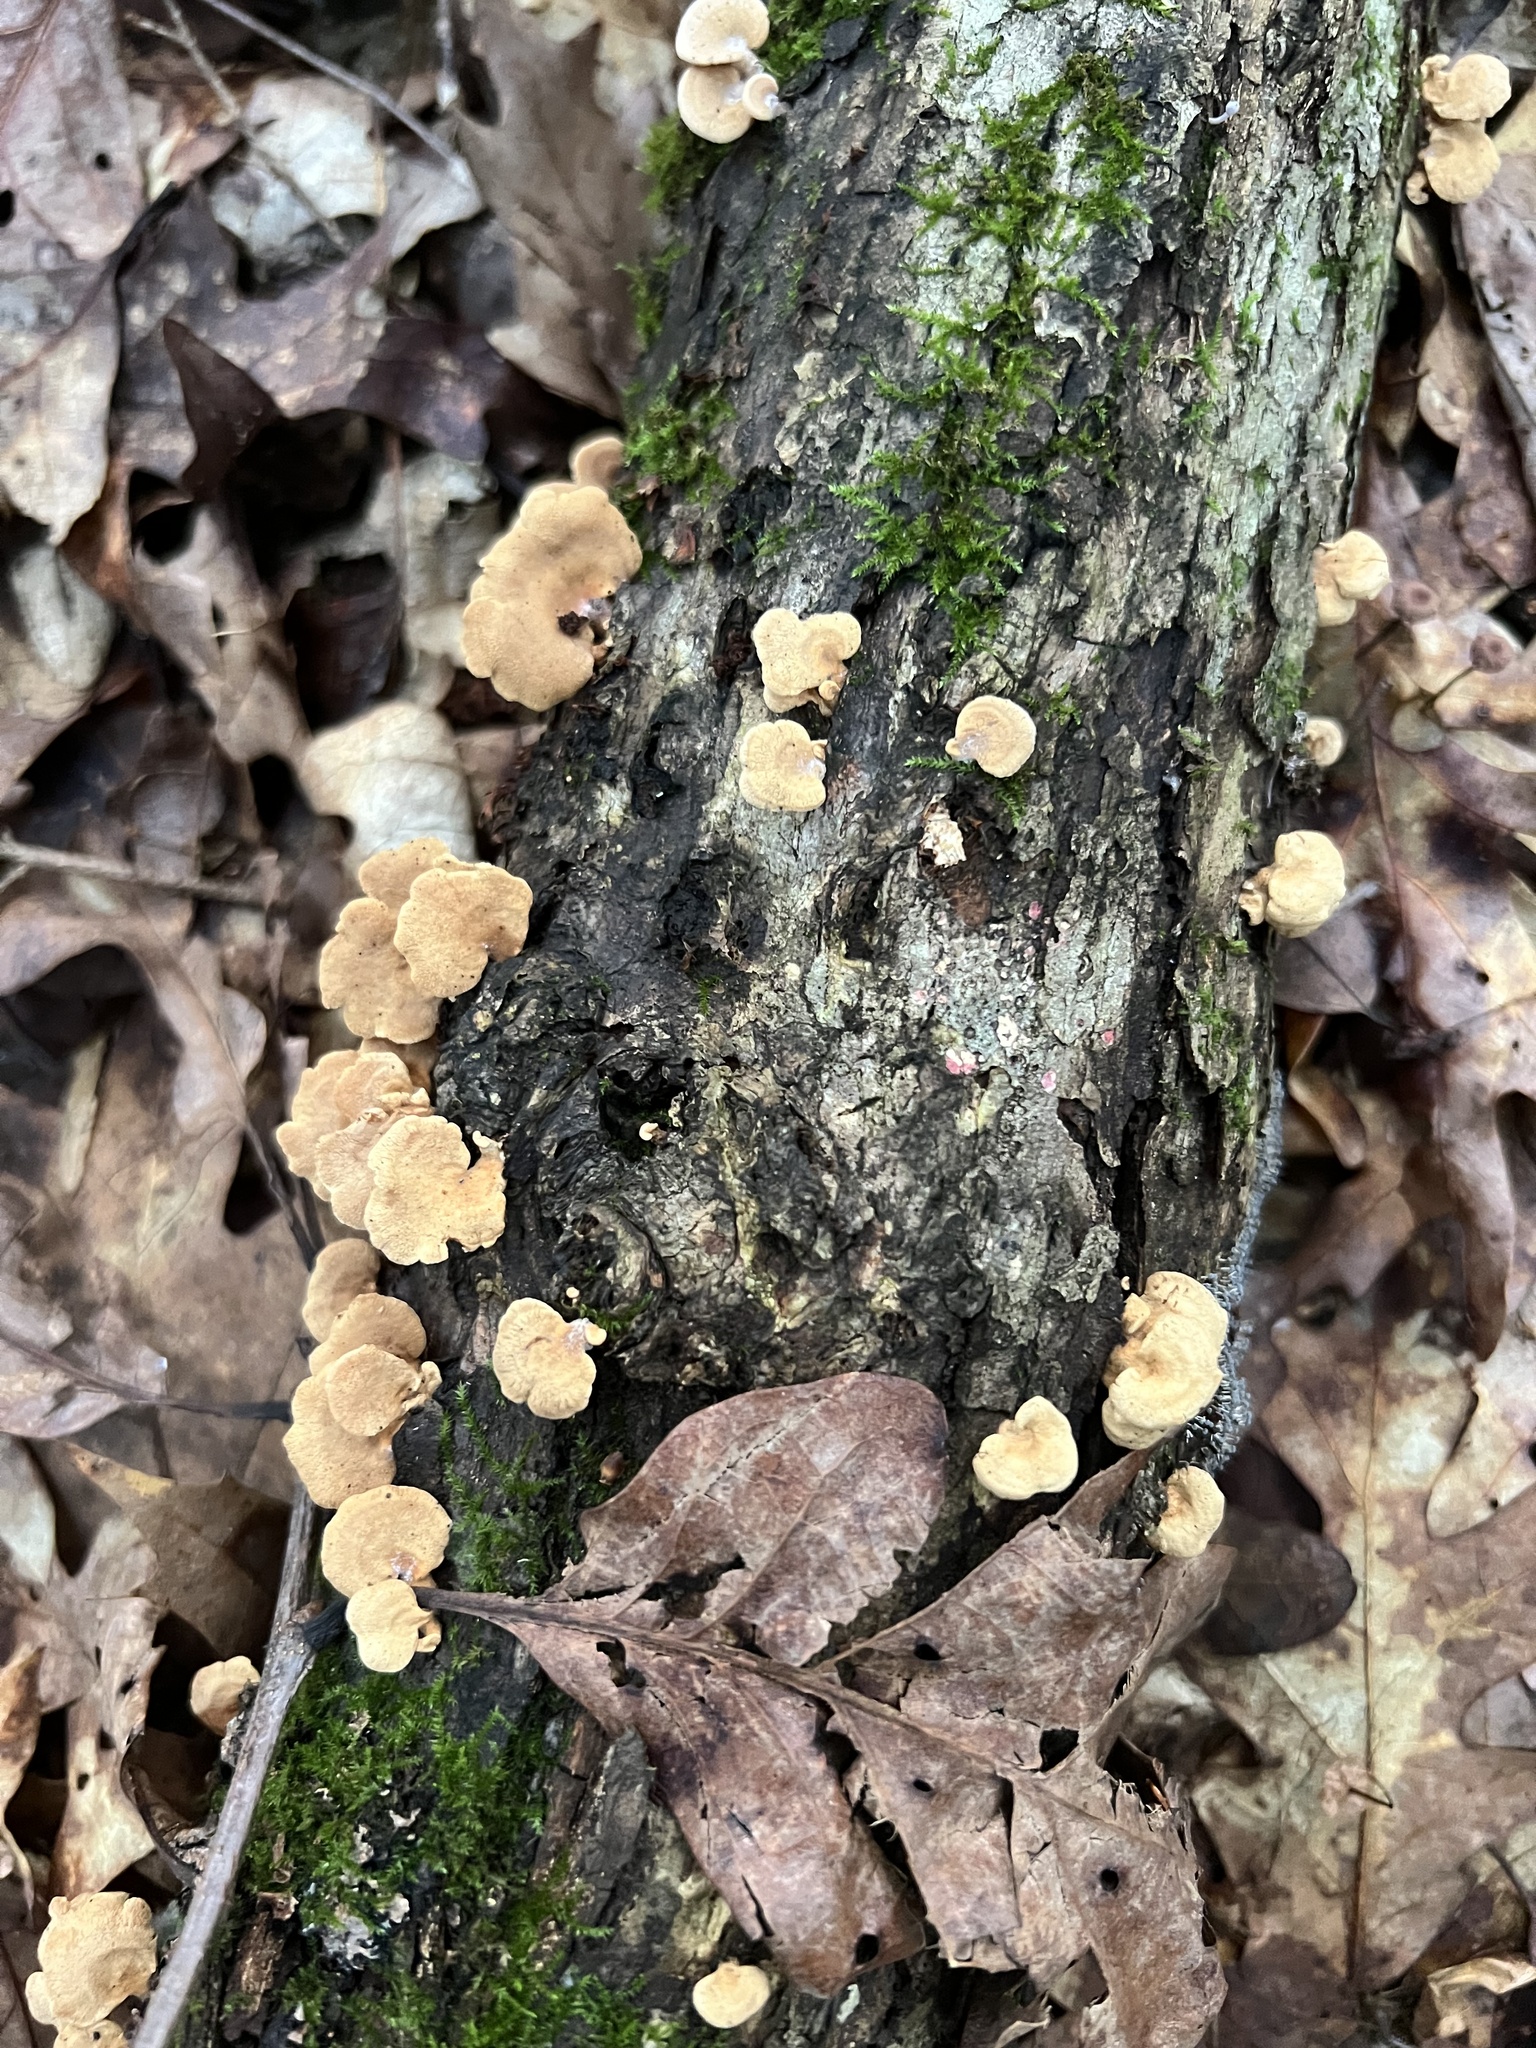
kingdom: Fungi
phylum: Basidiomycota
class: Agaricomycetes
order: Agaricales
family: Mycenaceae
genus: Panellus
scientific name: Panellus stipticus
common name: Bitter oysterling
